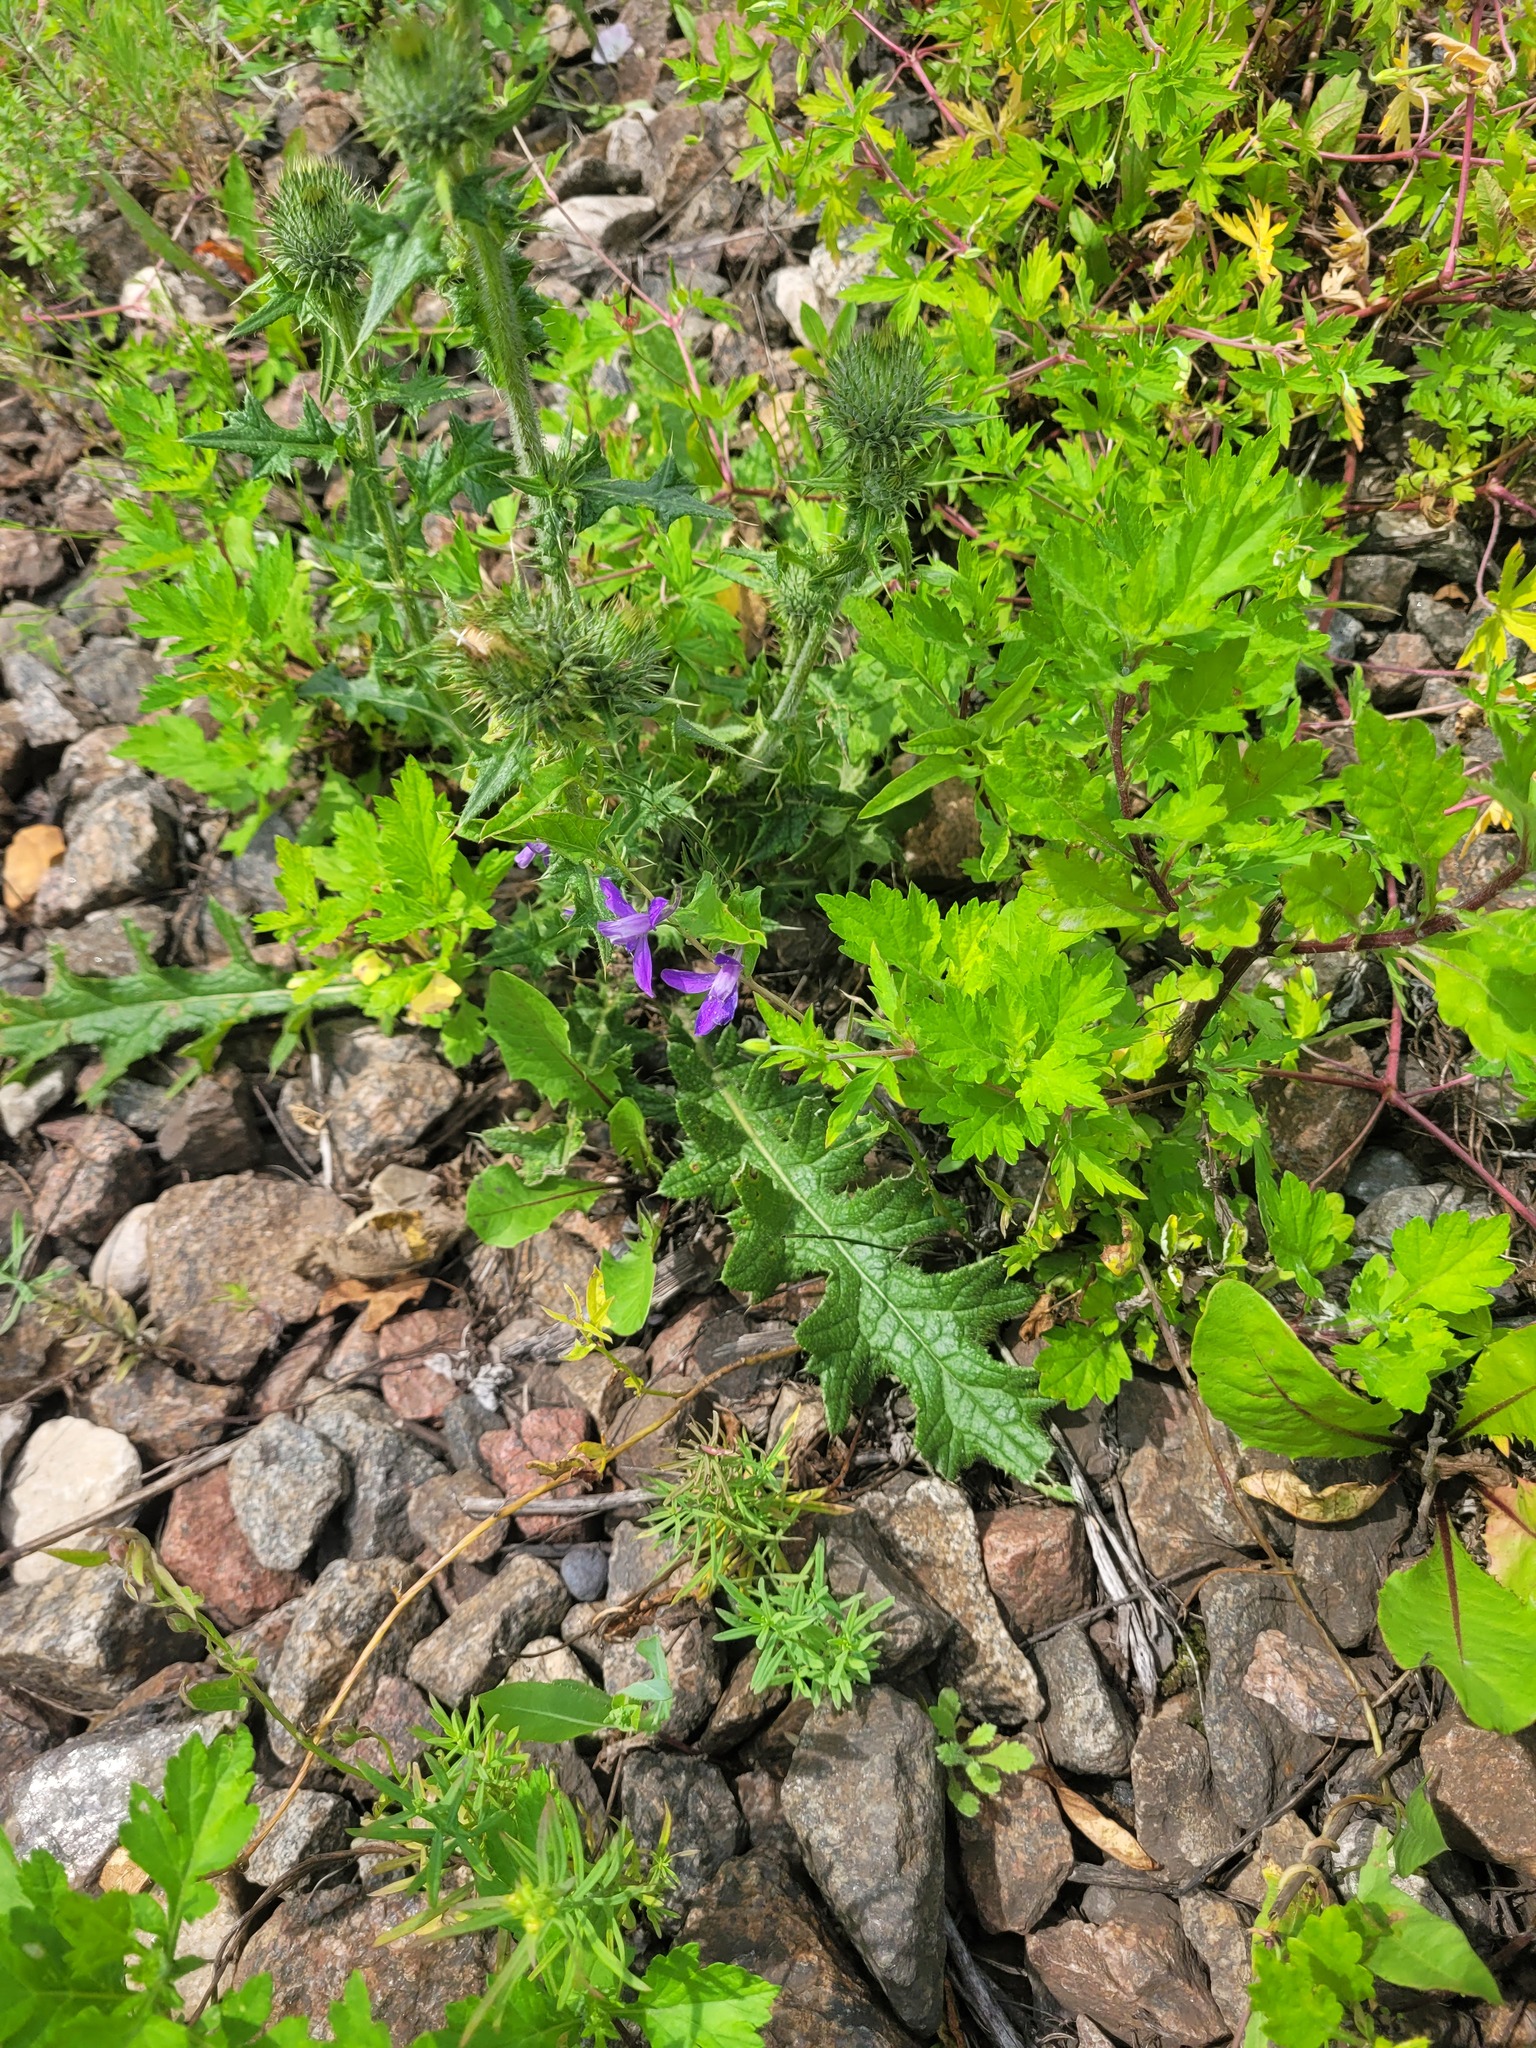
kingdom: Plantae
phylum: Tracheophyta
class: Magnoliopsida
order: Ranunculales
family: Ranunculaceae
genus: Delphinium
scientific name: Delphinium consolida
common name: Branching larkspur
